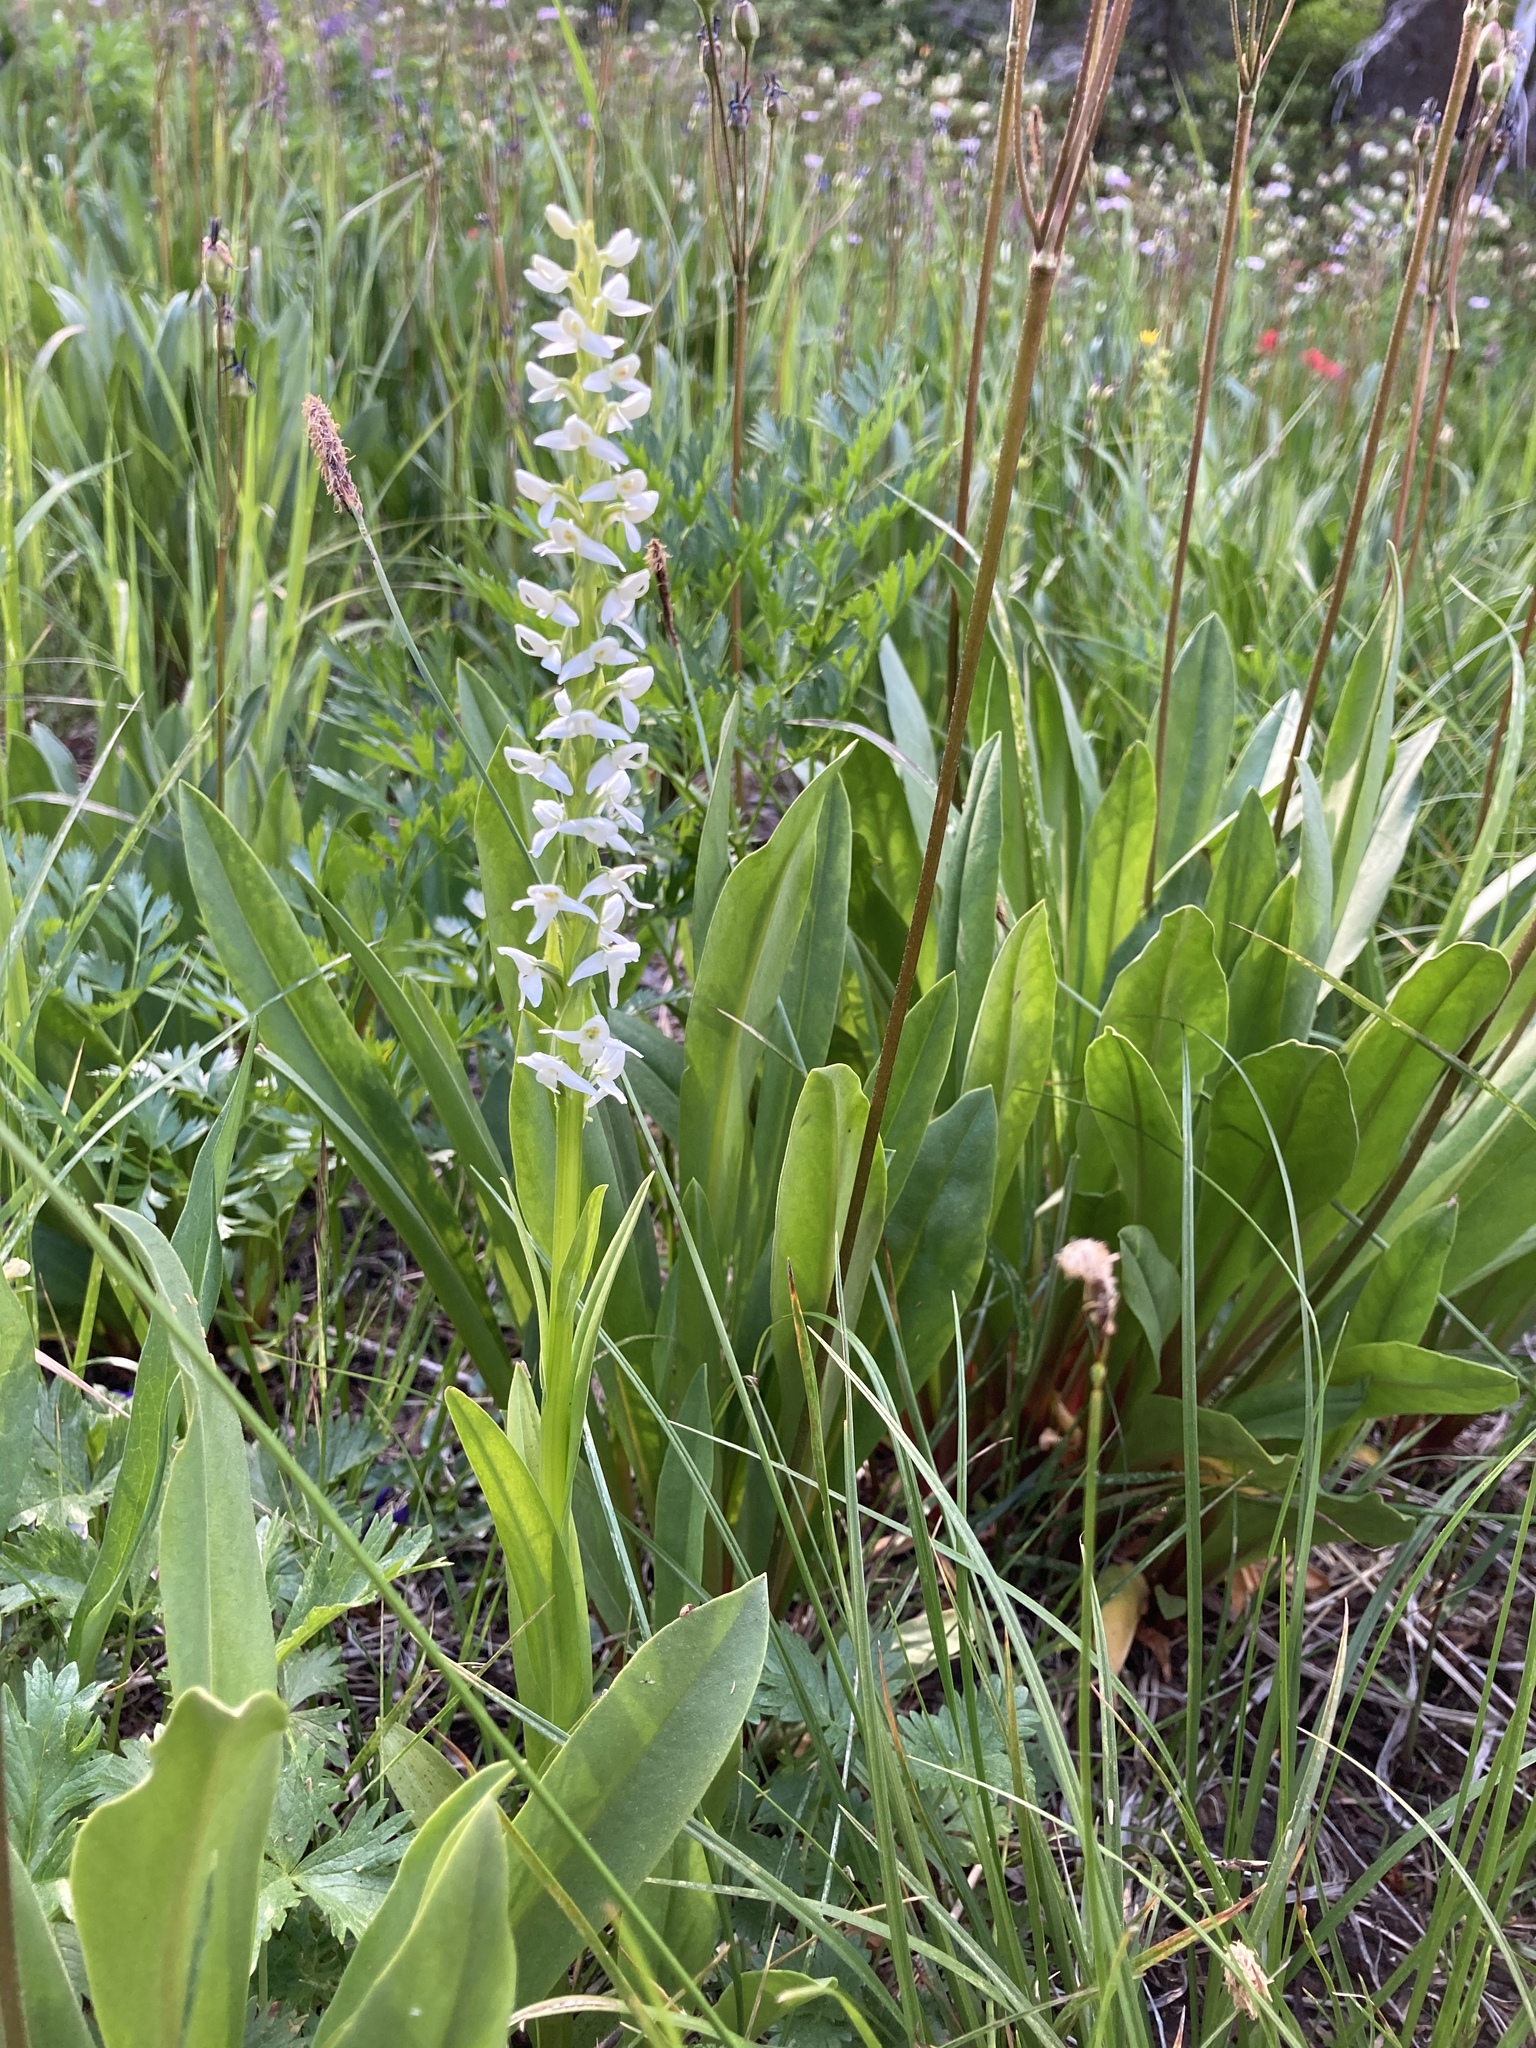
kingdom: Plantae
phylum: Tracheophyta
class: Liliopsida
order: Asparagales
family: Orchidaceae
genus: Platanthera
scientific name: Platanthera dilatata
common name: Bog candles
